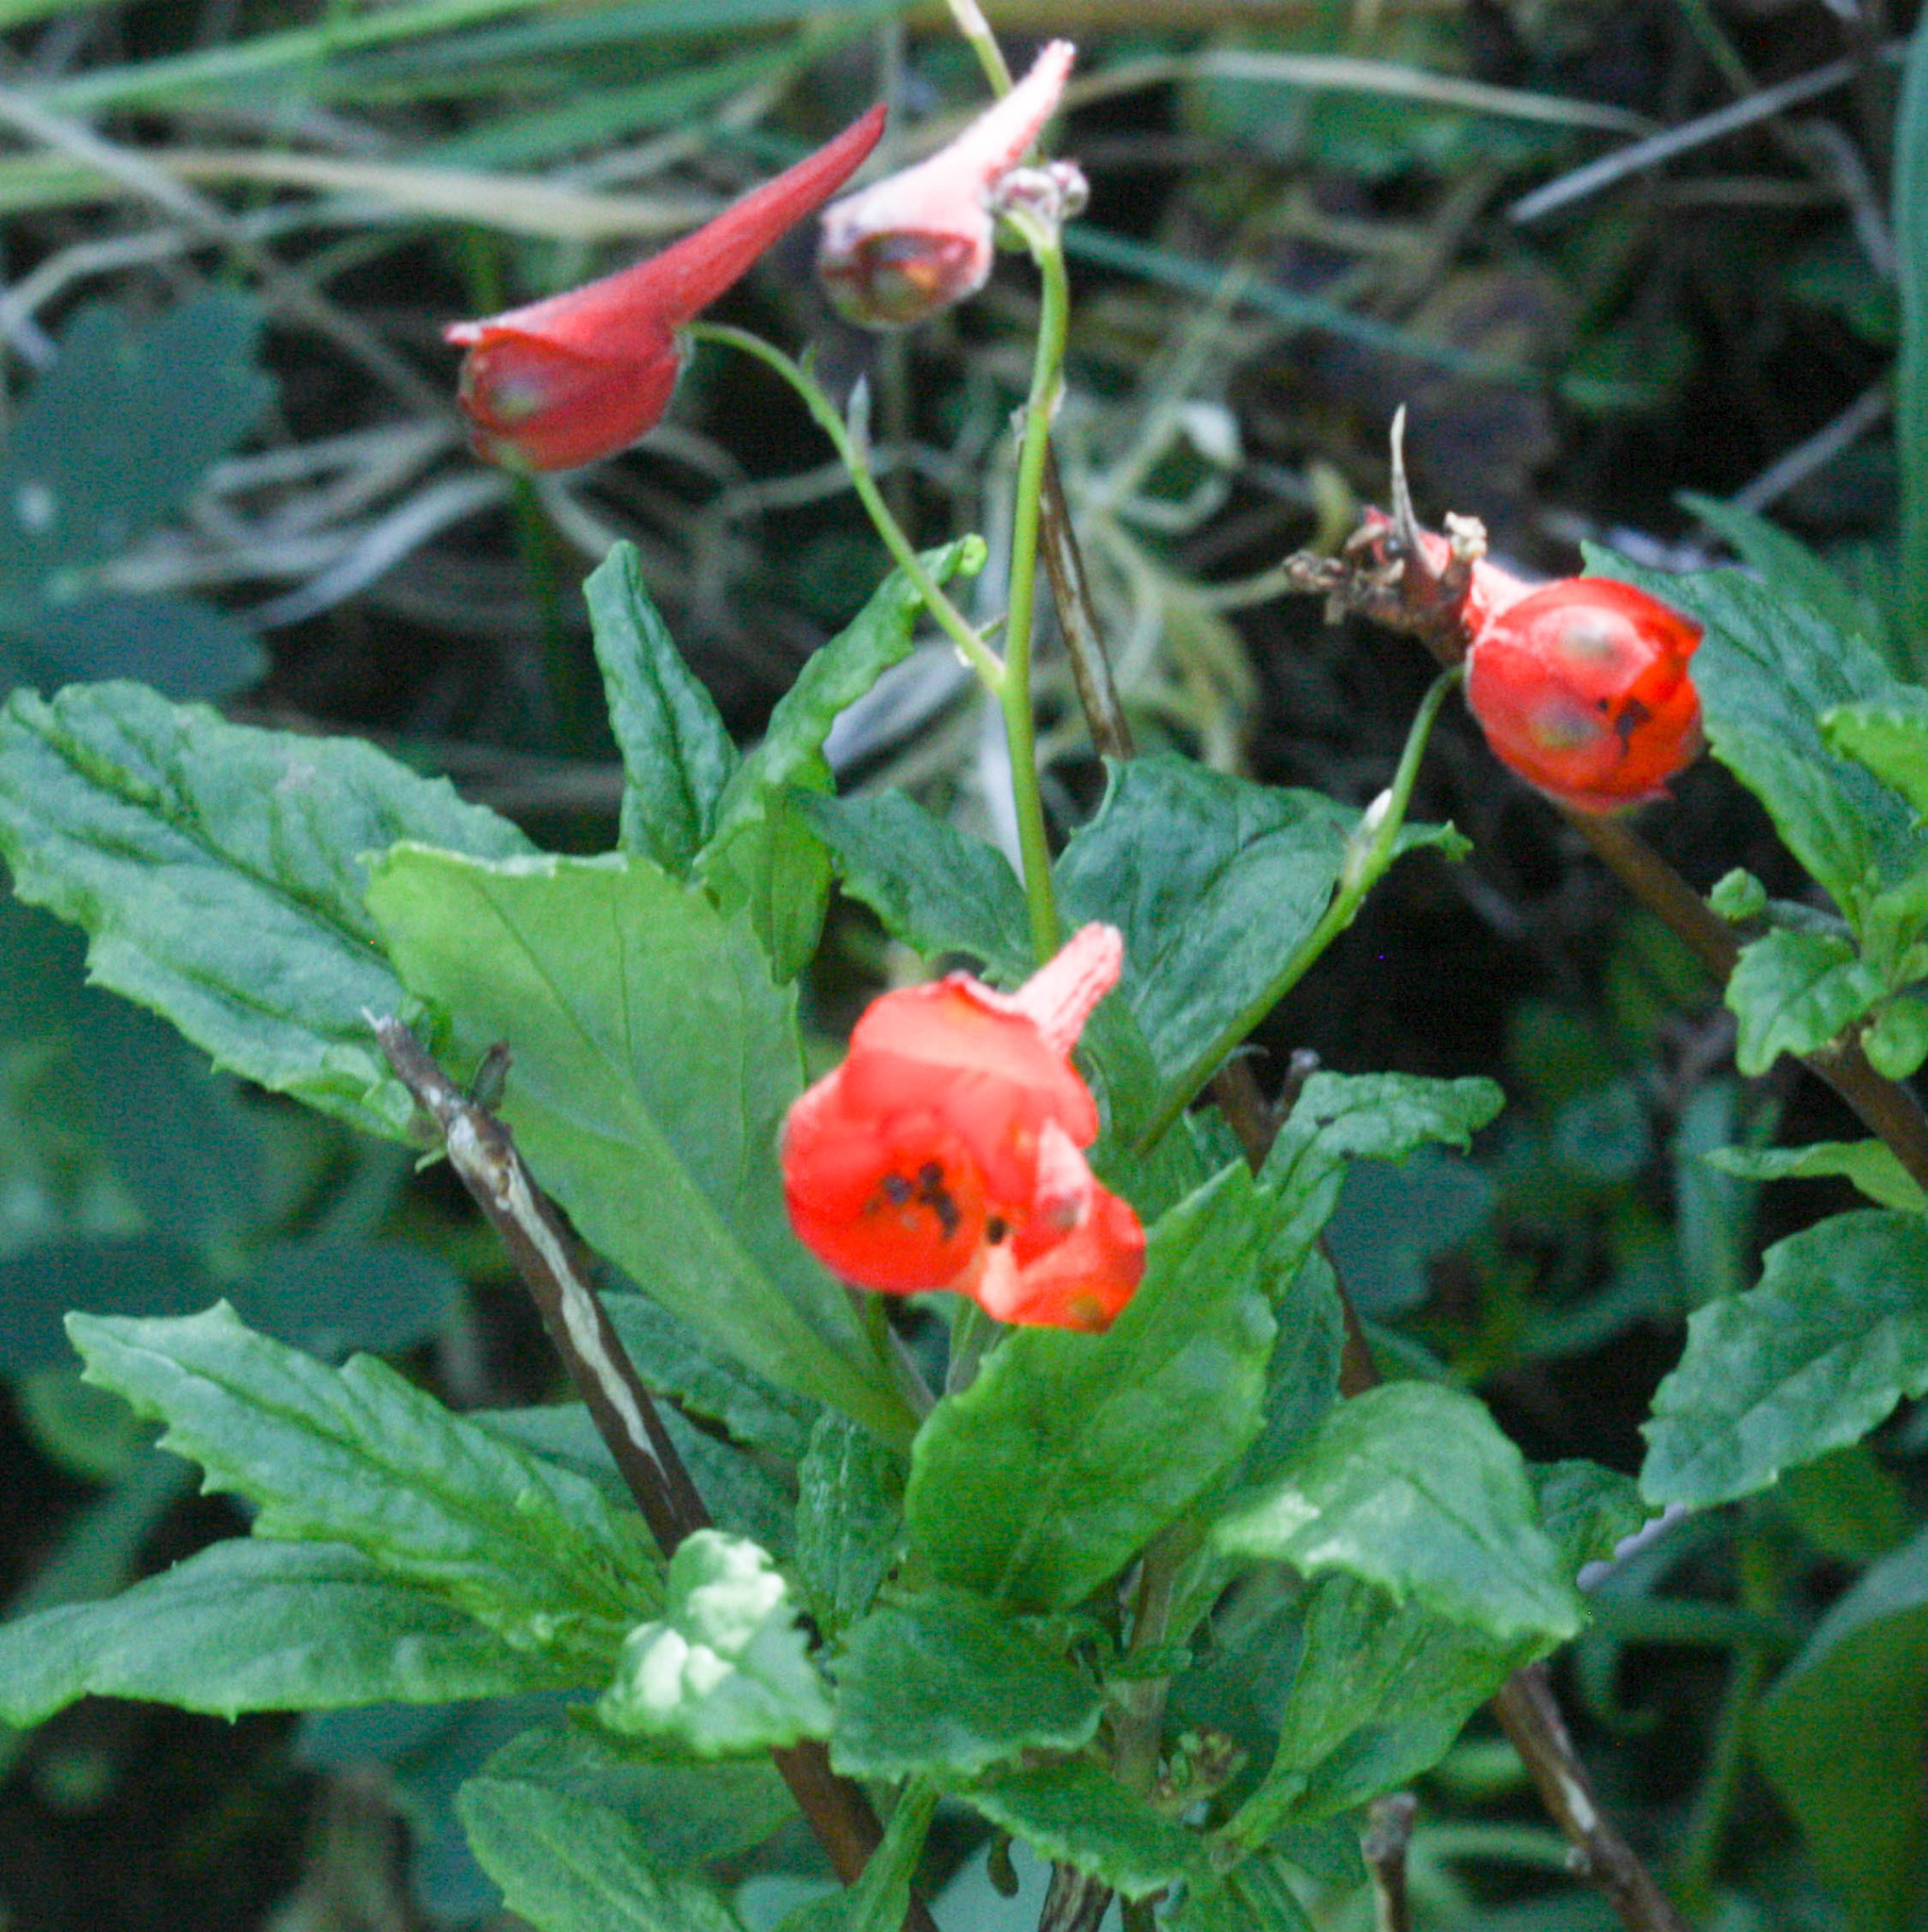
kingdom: Plantae
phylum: Tracheophyta
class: Magnoliopsida
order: Ranunculales
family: Ranunculaceae
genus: Delphinium
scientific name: Delphinium nudicaule
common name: Red larkspur
